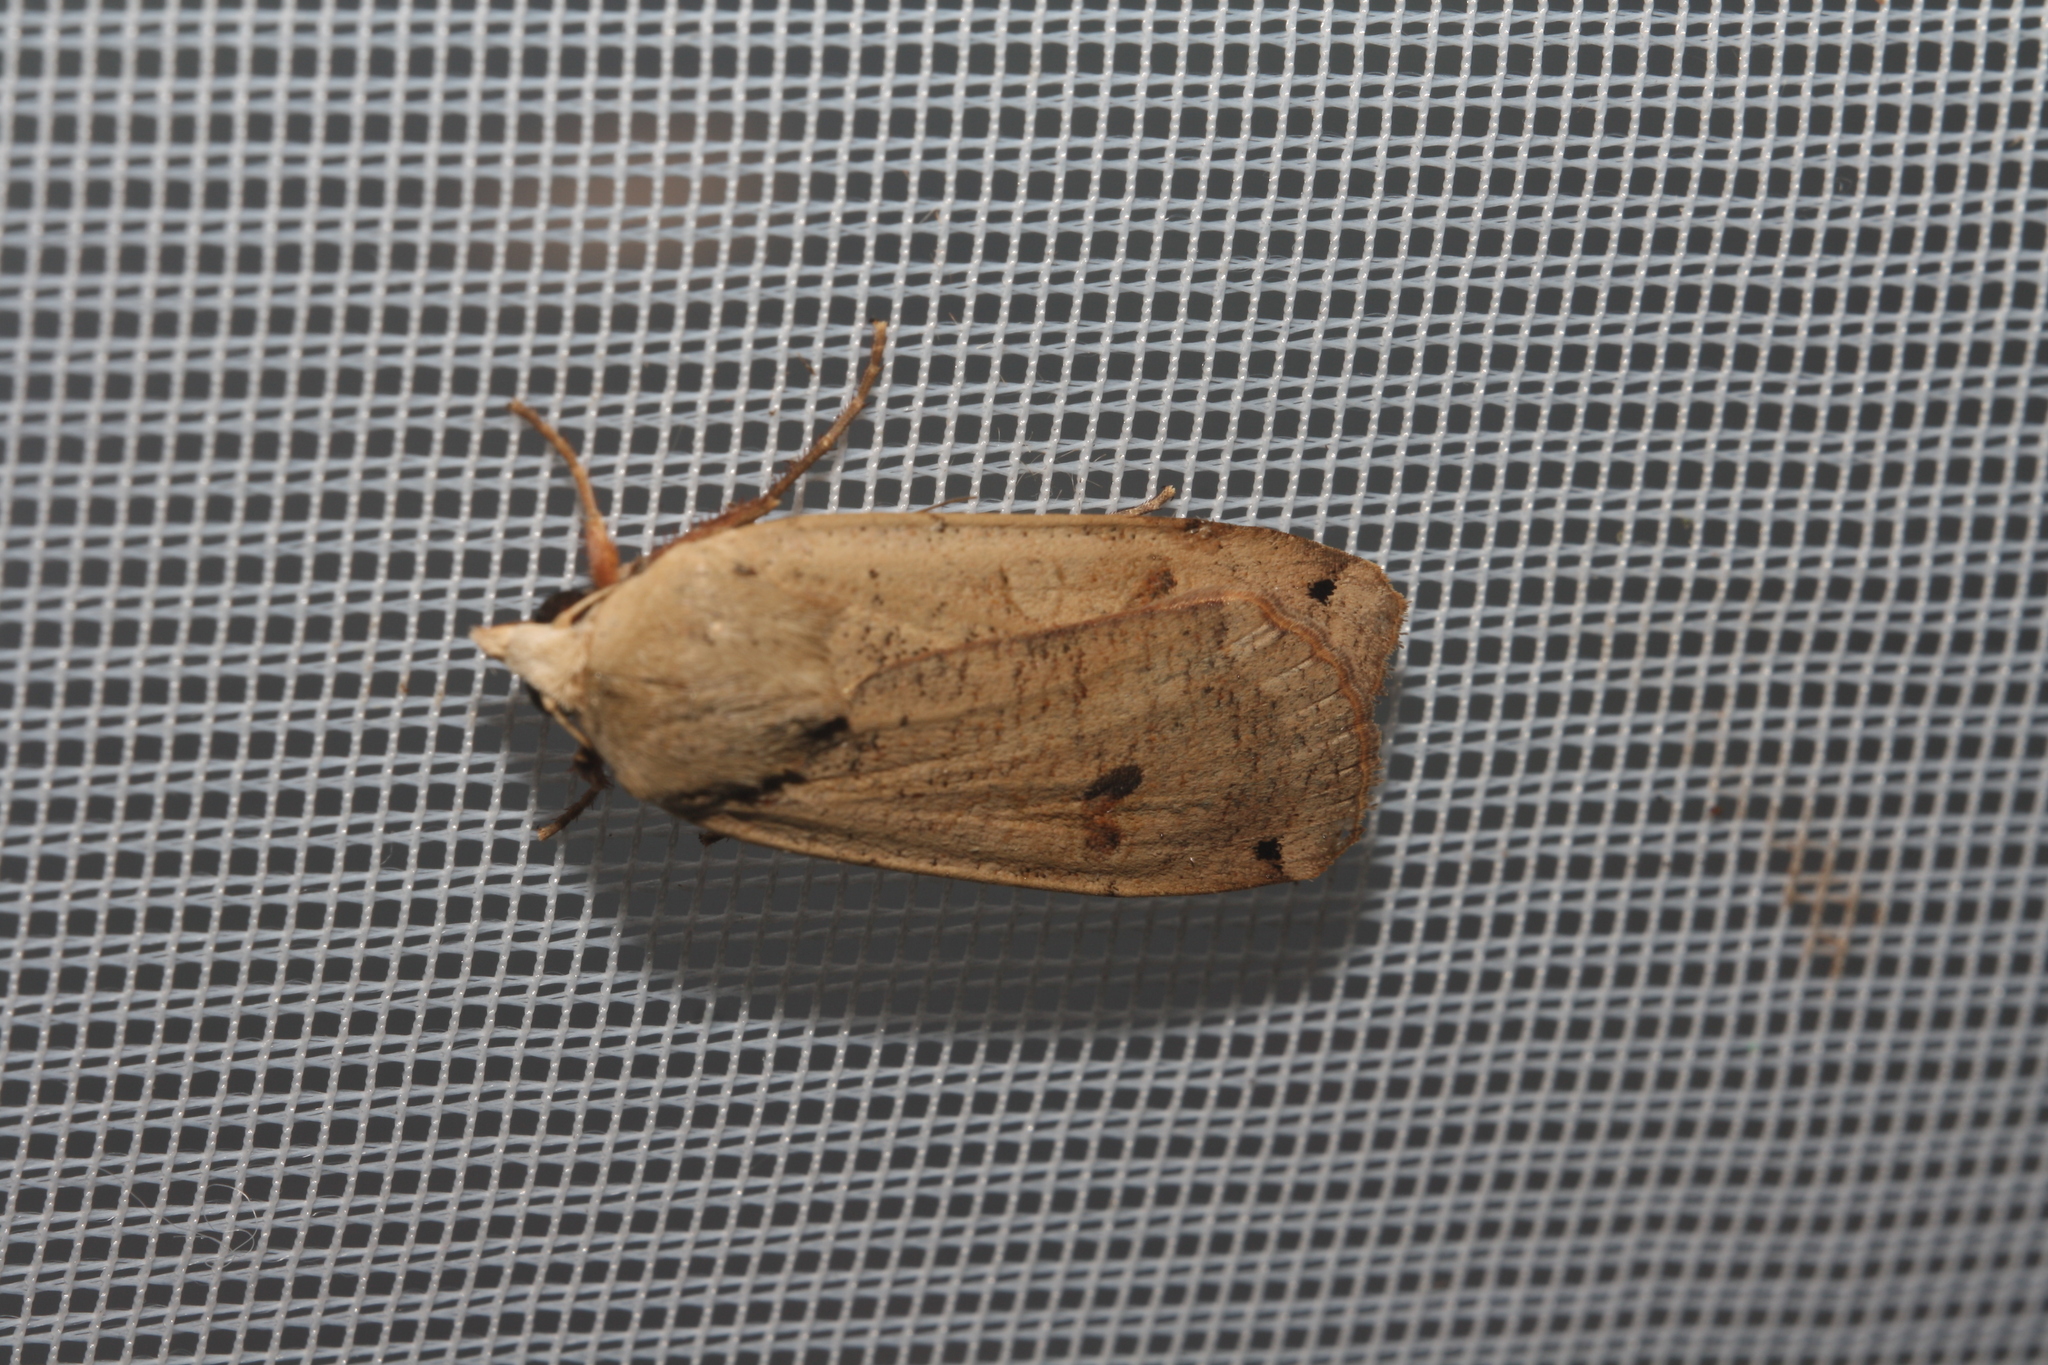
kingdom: Animalia
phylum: Arthropoda
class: Insecta
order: Lepidoptera
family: Noctuidae
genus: Noctua
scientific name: Noctua pronuba
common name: Large yellow underwing
